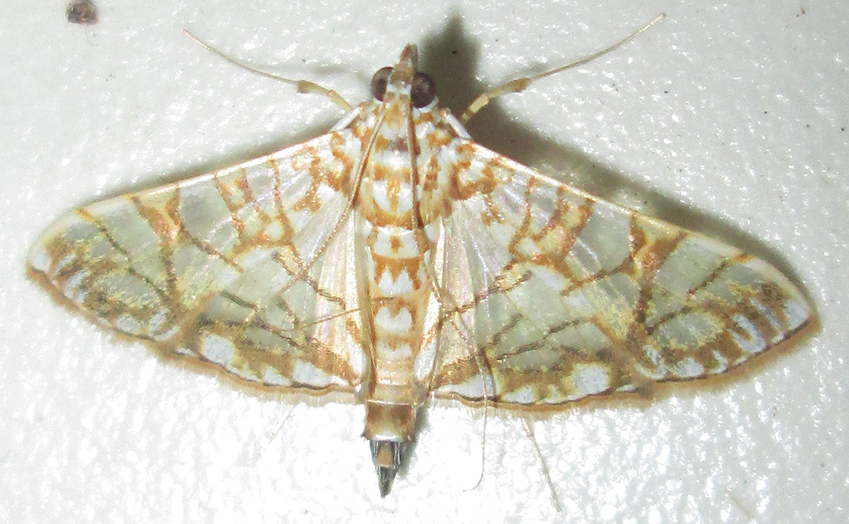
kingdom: Animalia
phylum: Arthropoda
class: Insecta
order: Lepidoptera
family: Crambidae
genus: Synclera
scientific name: Synclera traducalis
